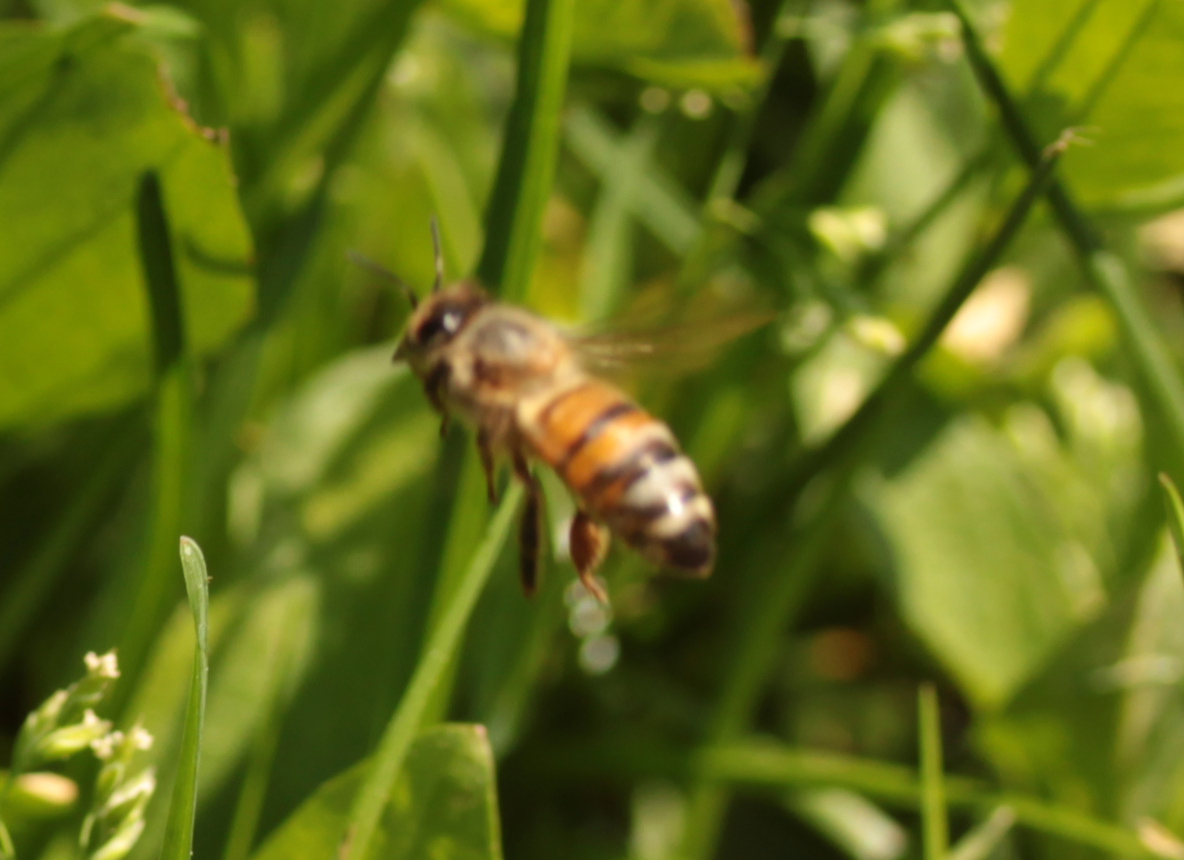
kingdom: Animalia
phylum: Arthropoda
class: Insecta
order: Hymenoptera
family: Apidae
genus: Apis
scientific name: Apis mellifera
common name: Honey bee
